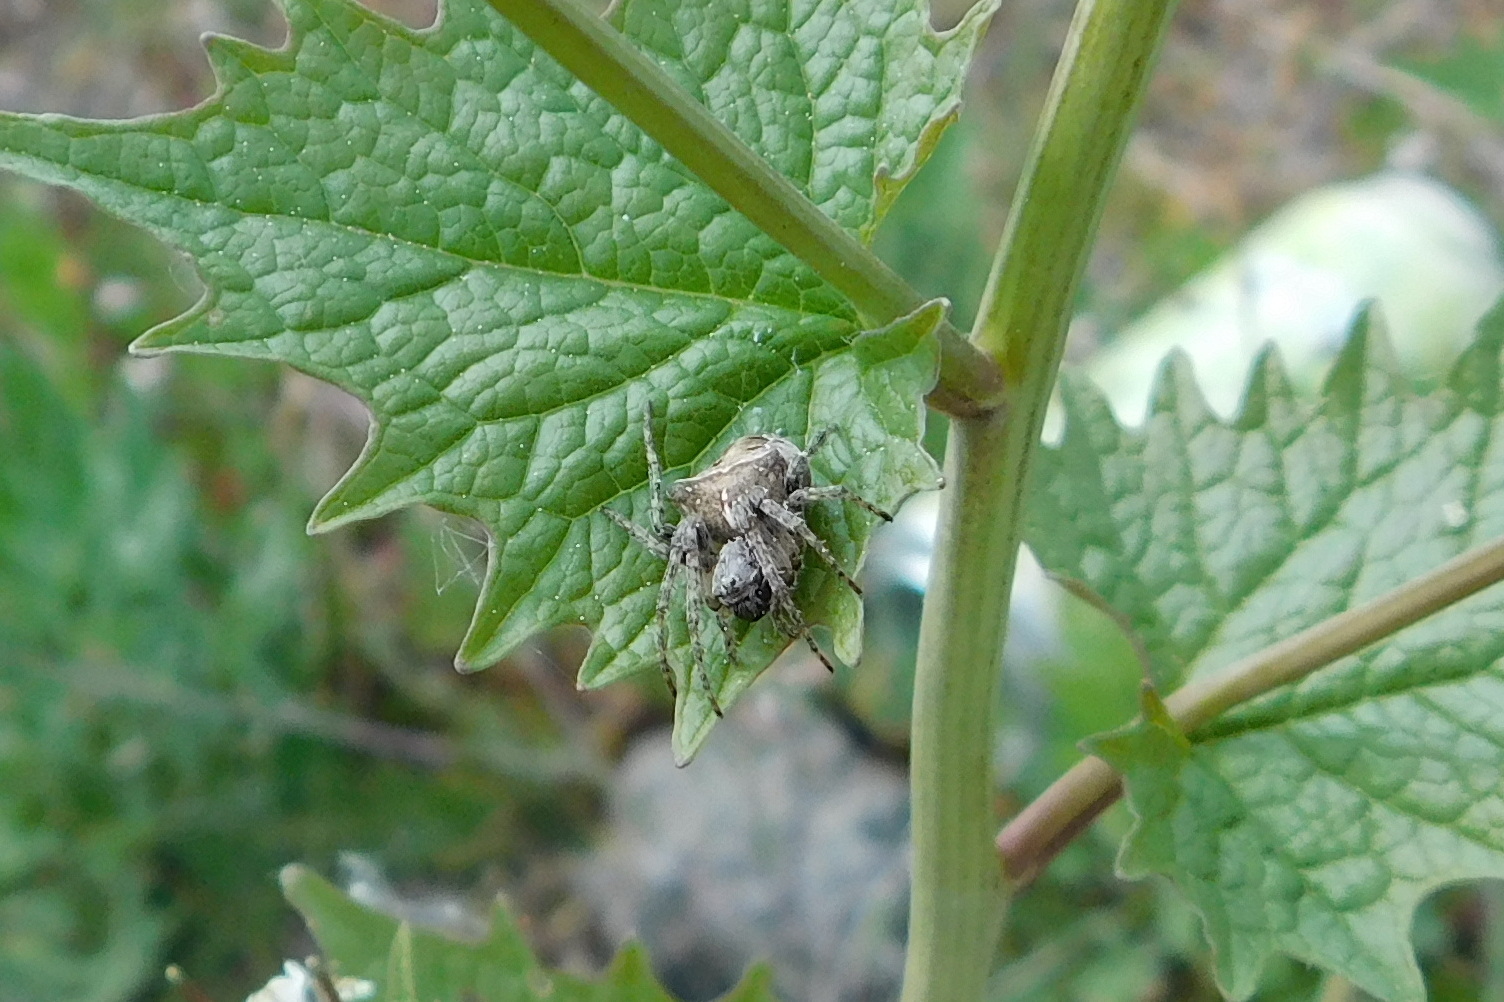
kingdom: Animalia
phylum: Arthropoda
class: Arachnida
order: Araneae
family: Araneidae
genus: Gibbaranea
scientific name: Gibbaranea bituberculata
